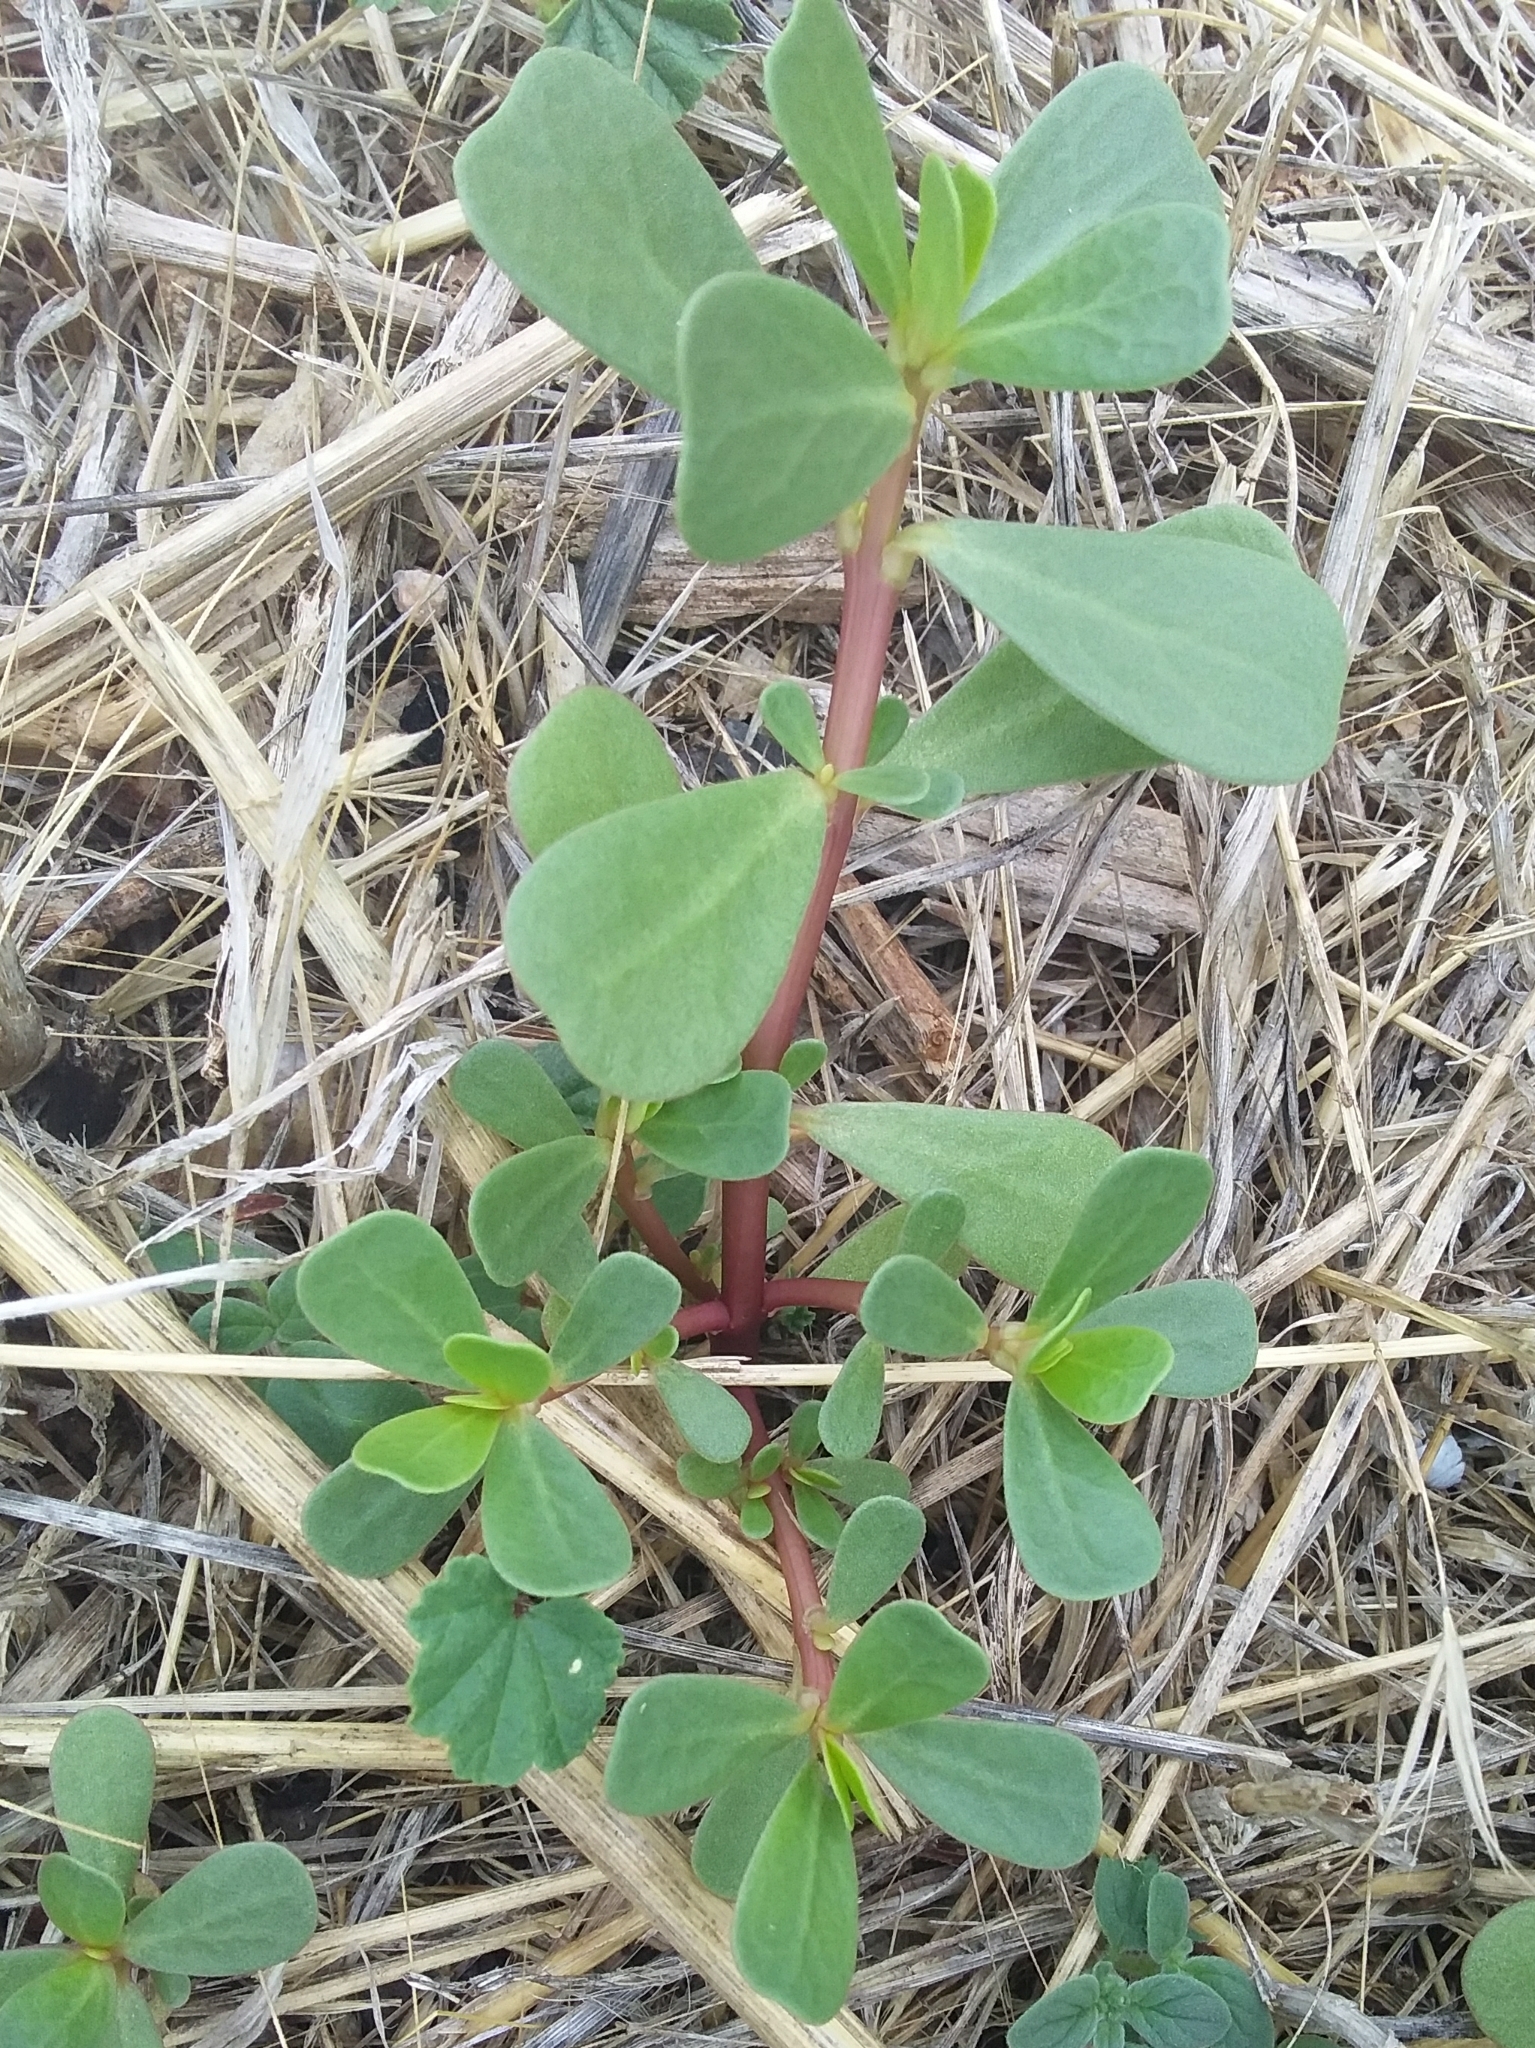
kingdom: Plantae
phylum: Tracheophyta
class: Magnoliopsida
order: Caryophyllales
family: Portulacaceae
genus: Portulaca
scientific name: Portulaca oleracea
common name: Common purslane
